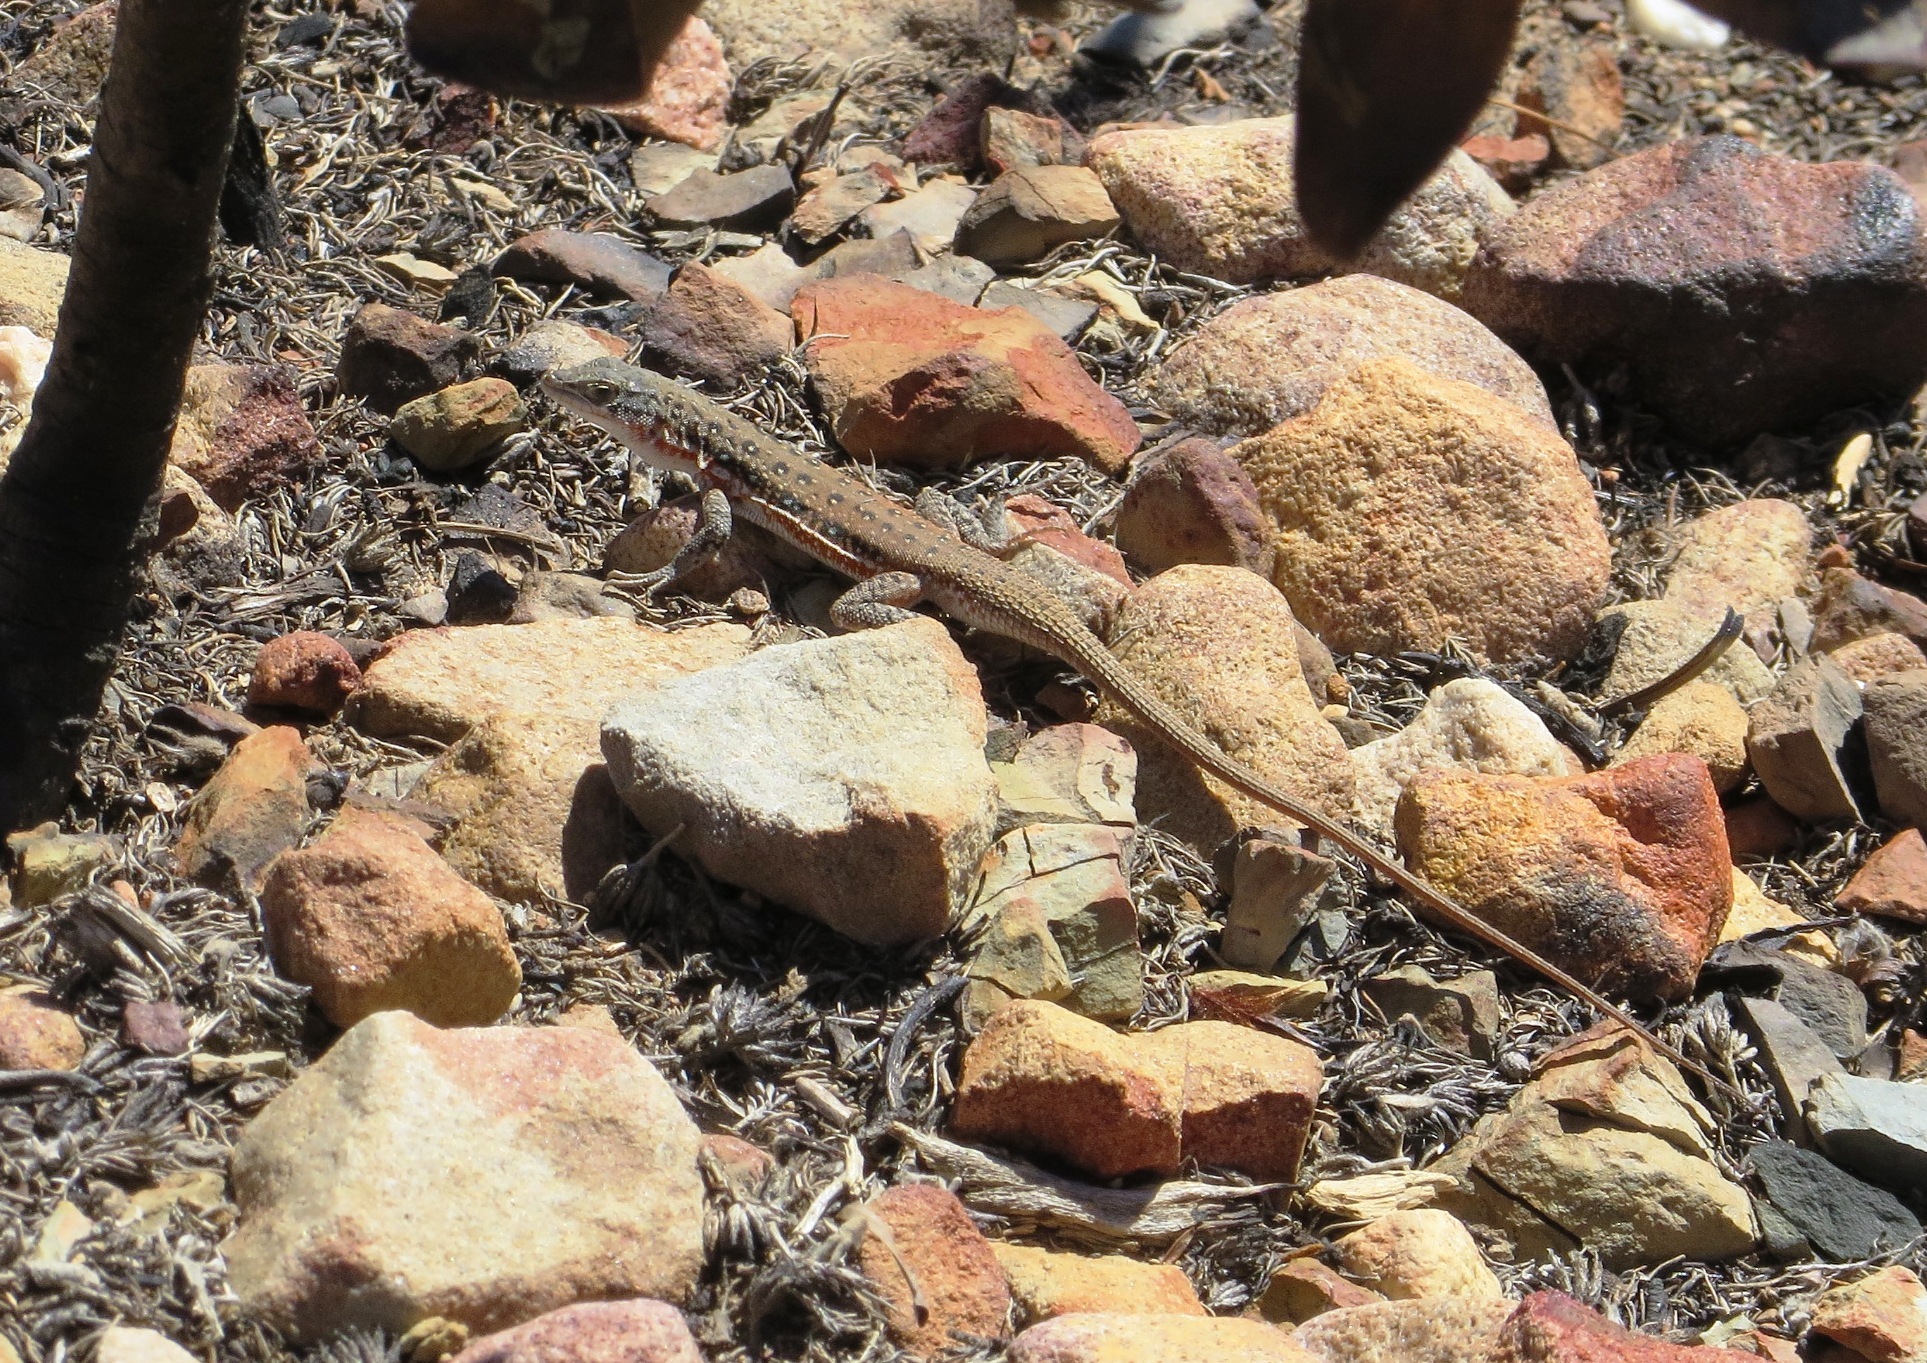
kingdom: Animalia
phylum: Chordata
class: Squamata
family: Lacertidae
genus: Pedioplanis
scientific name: Pedioplanis lineoocellata
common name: Spotted sand lizard
